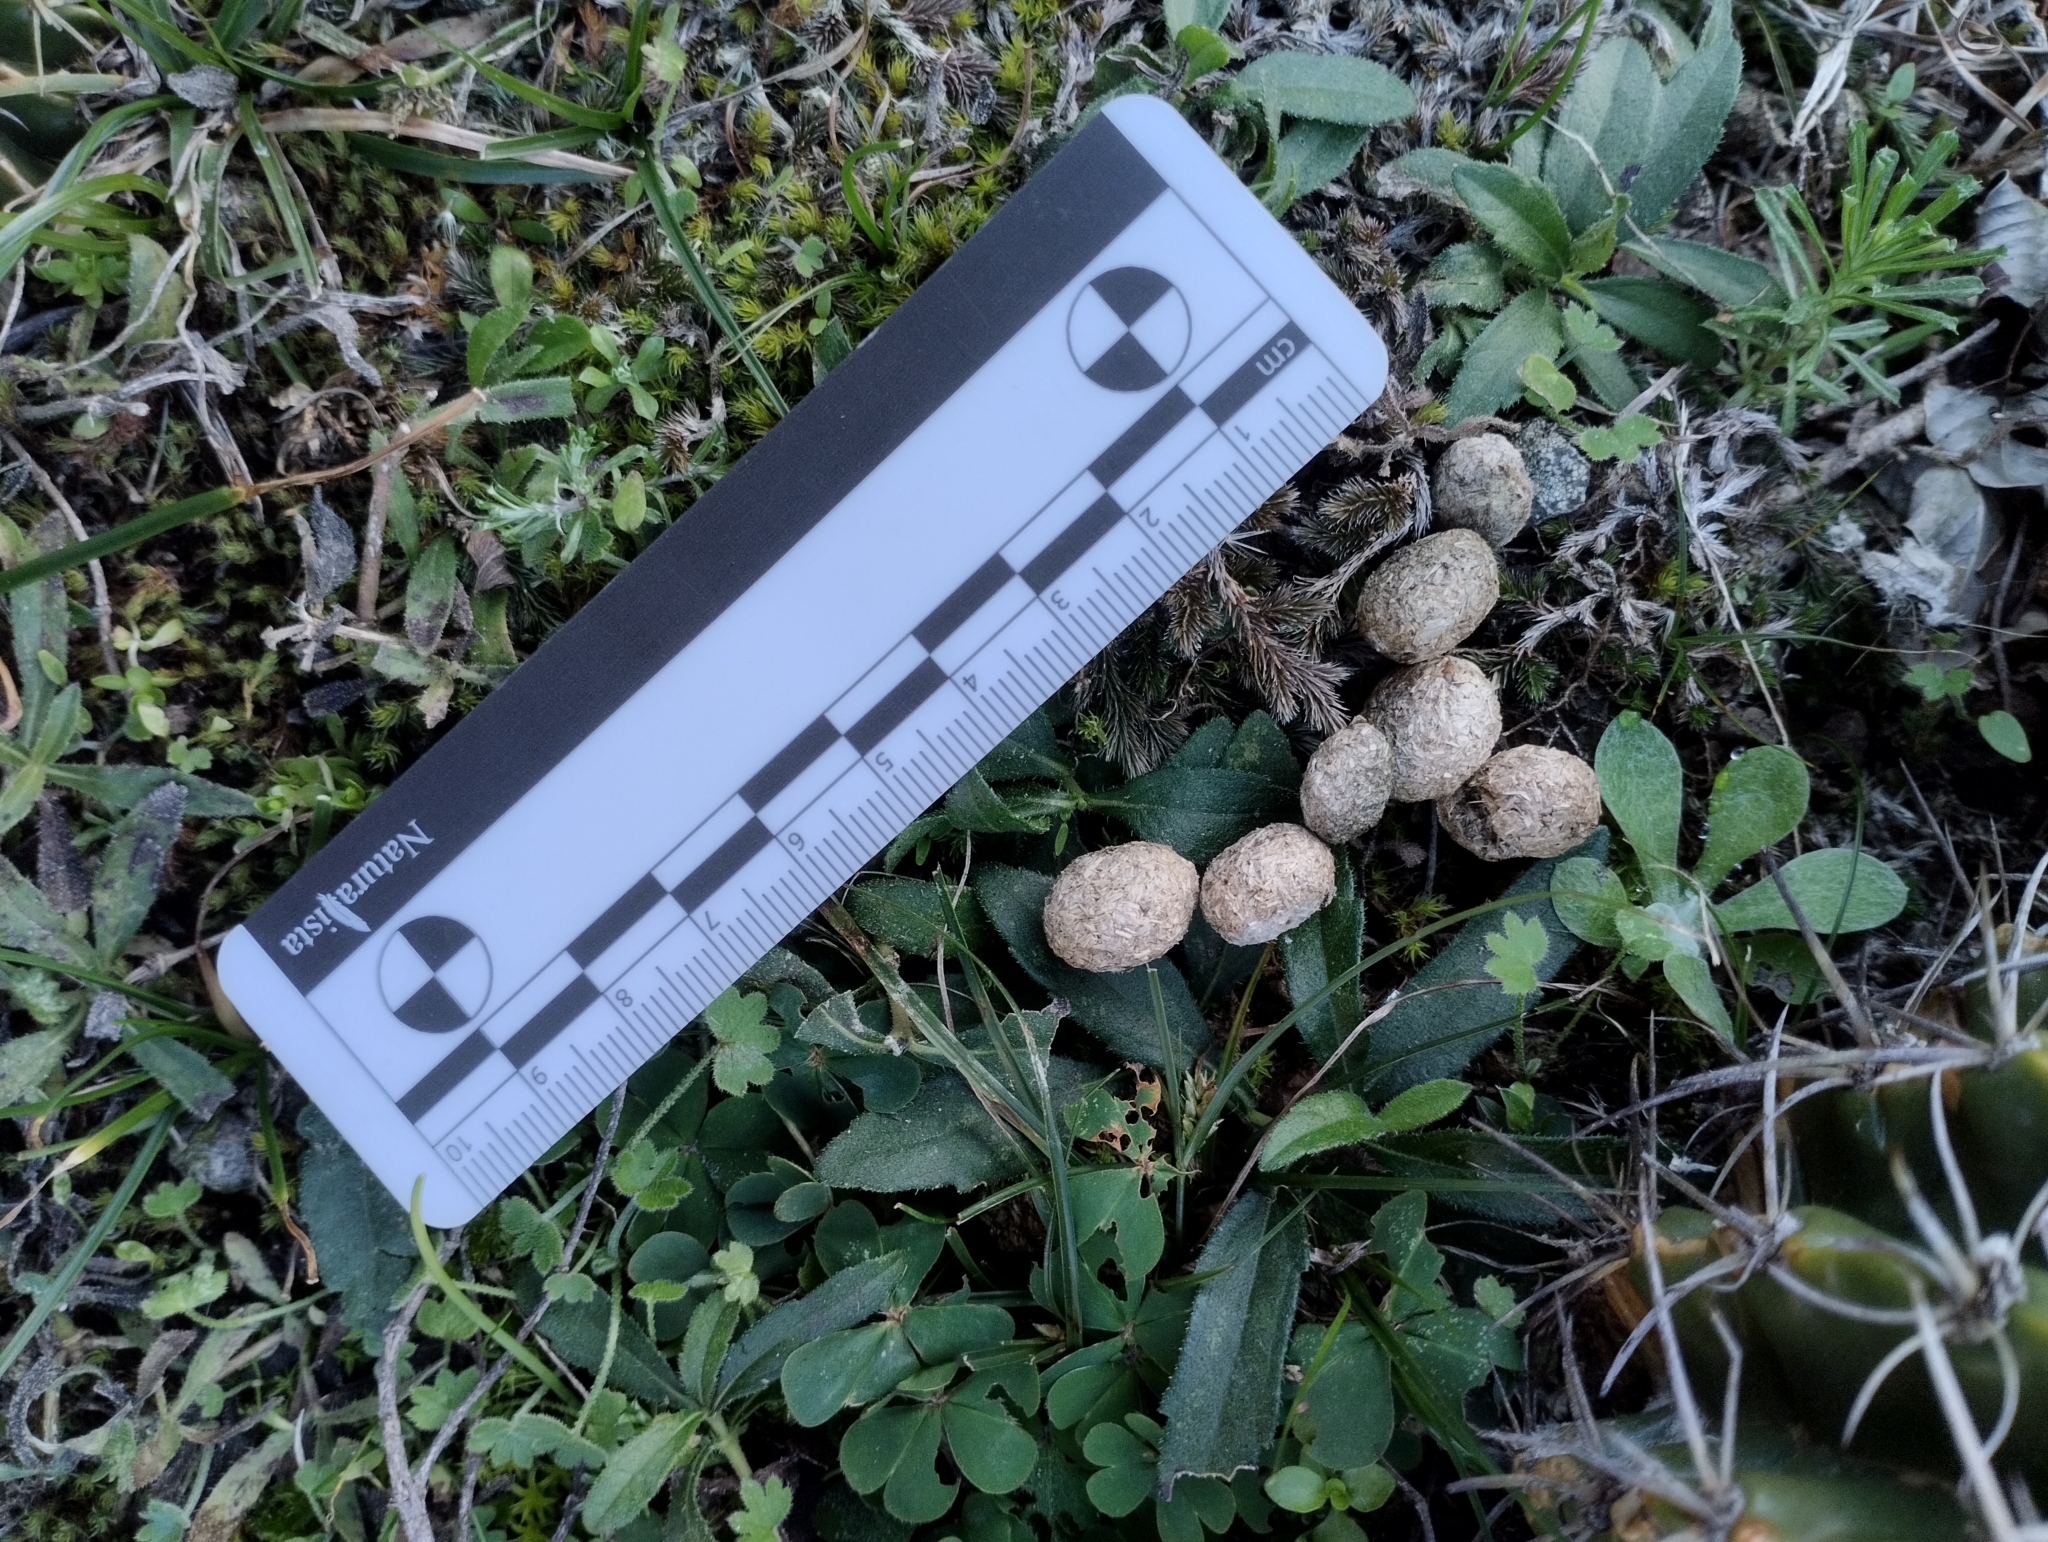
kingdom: Animalia
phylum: Chordata
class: Mammalia
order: Lagomorpha
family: Leporidae
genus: Lepus
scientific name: Lepus europaeus
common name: European hare
